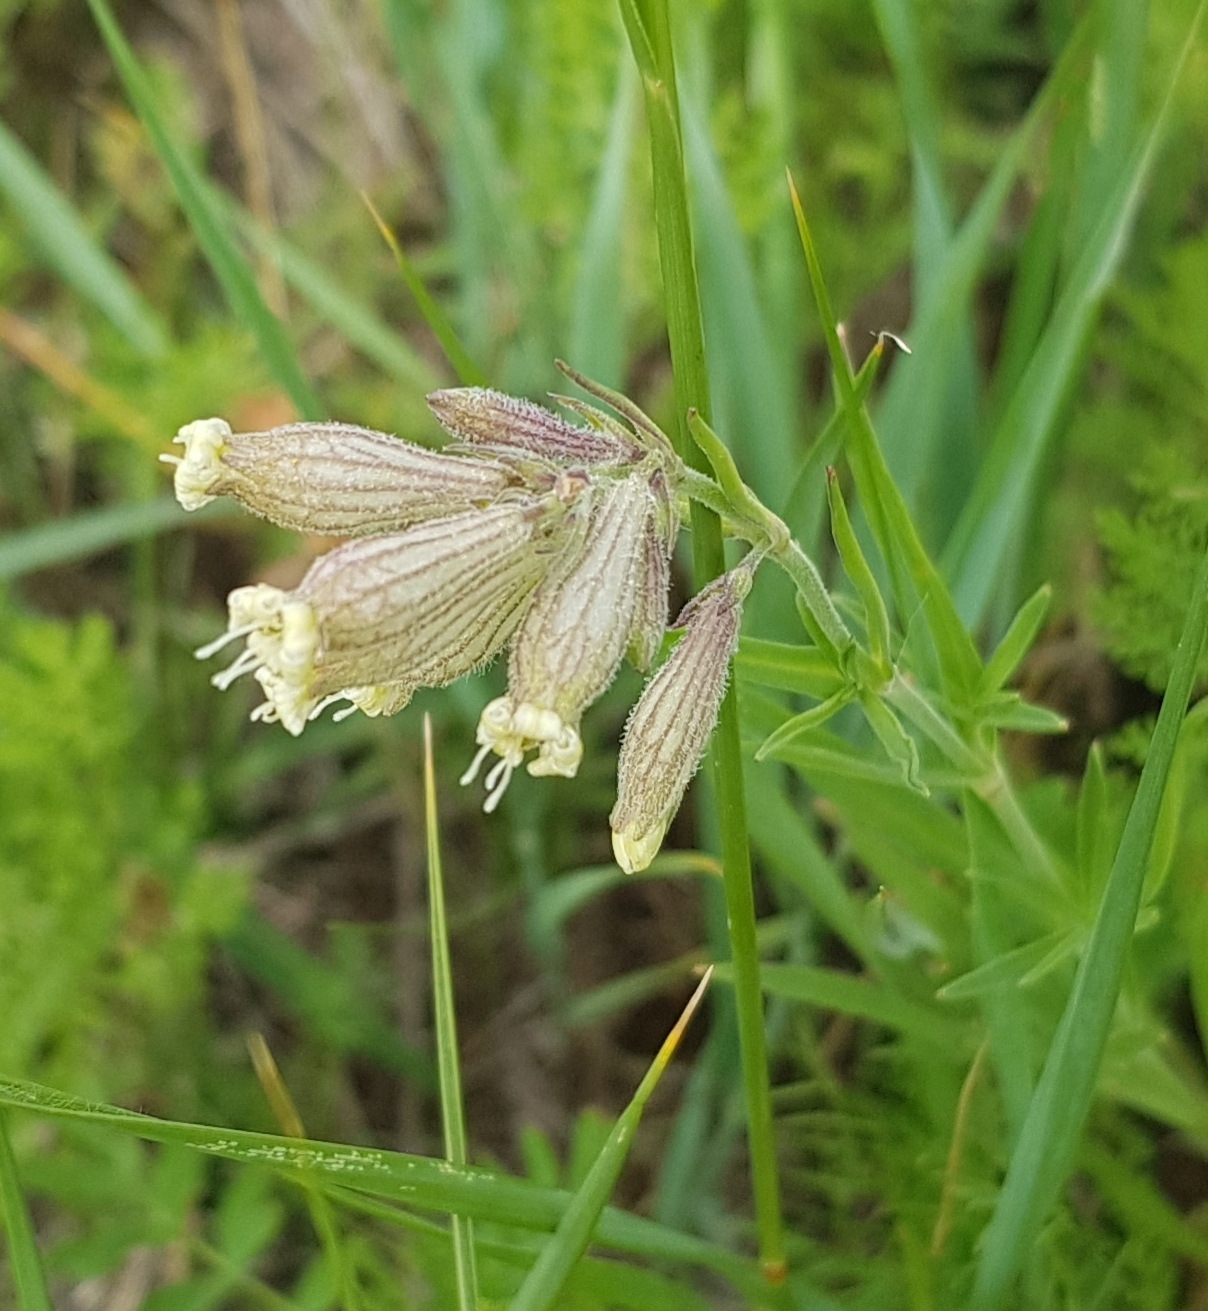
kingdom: Plantae
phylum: Tracheophyta
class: Magnoliopsida
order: Caryophyllales
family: Caryophyllaceae
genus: Silene
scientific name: Silene amoena
